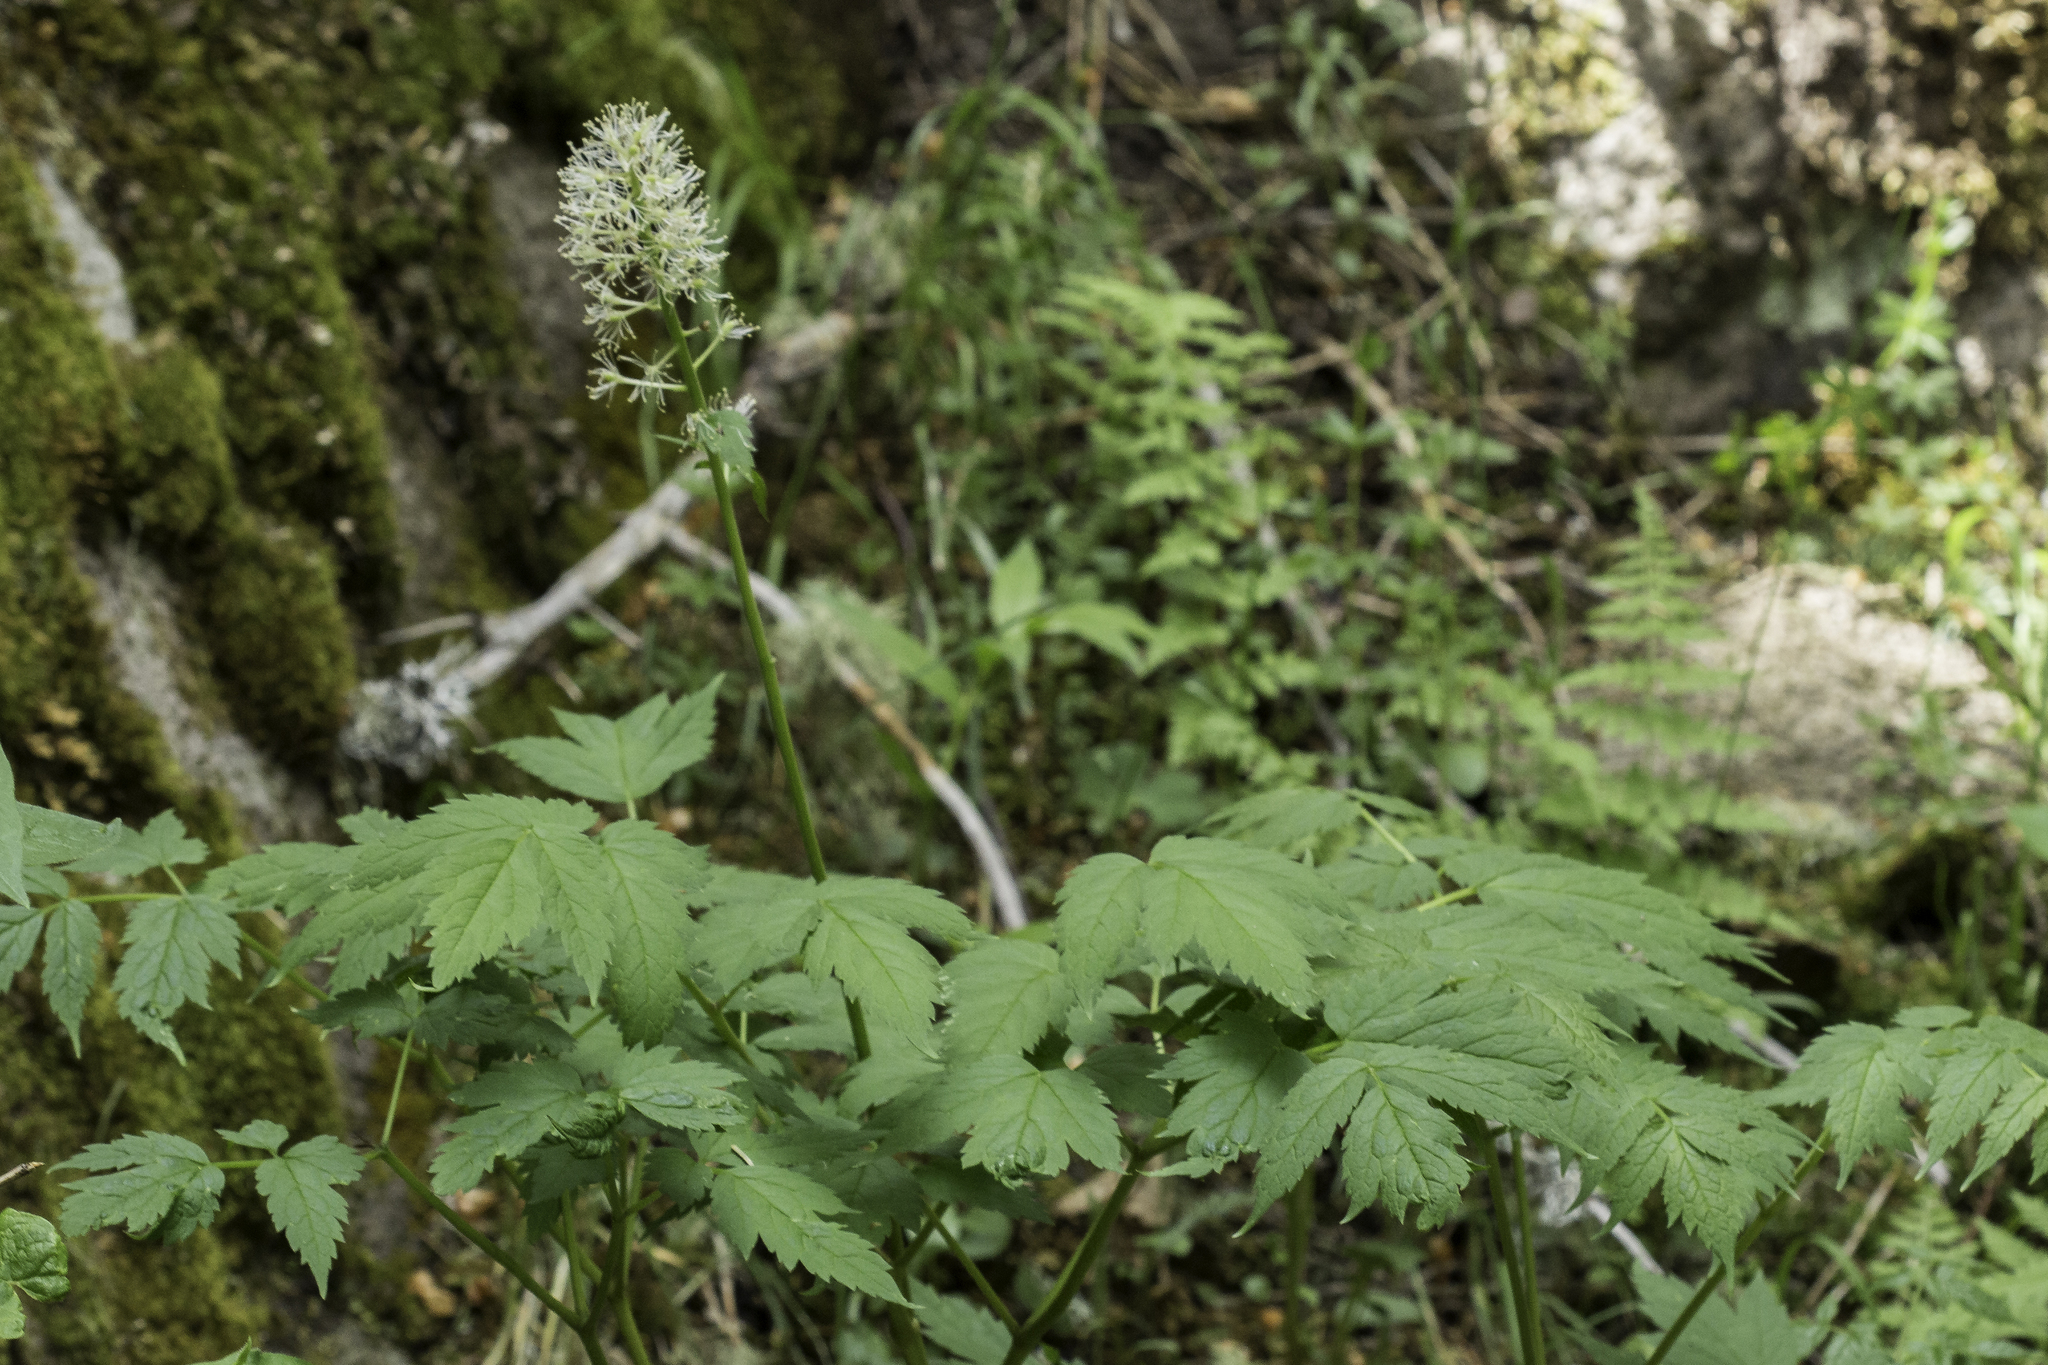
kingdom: Plantae
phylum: Tracheophyta
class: Magnoliopsida
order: Ranunculales
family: Ranunculaceae
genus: Actaea
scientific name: Actaea rubra
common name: Red baneberry
